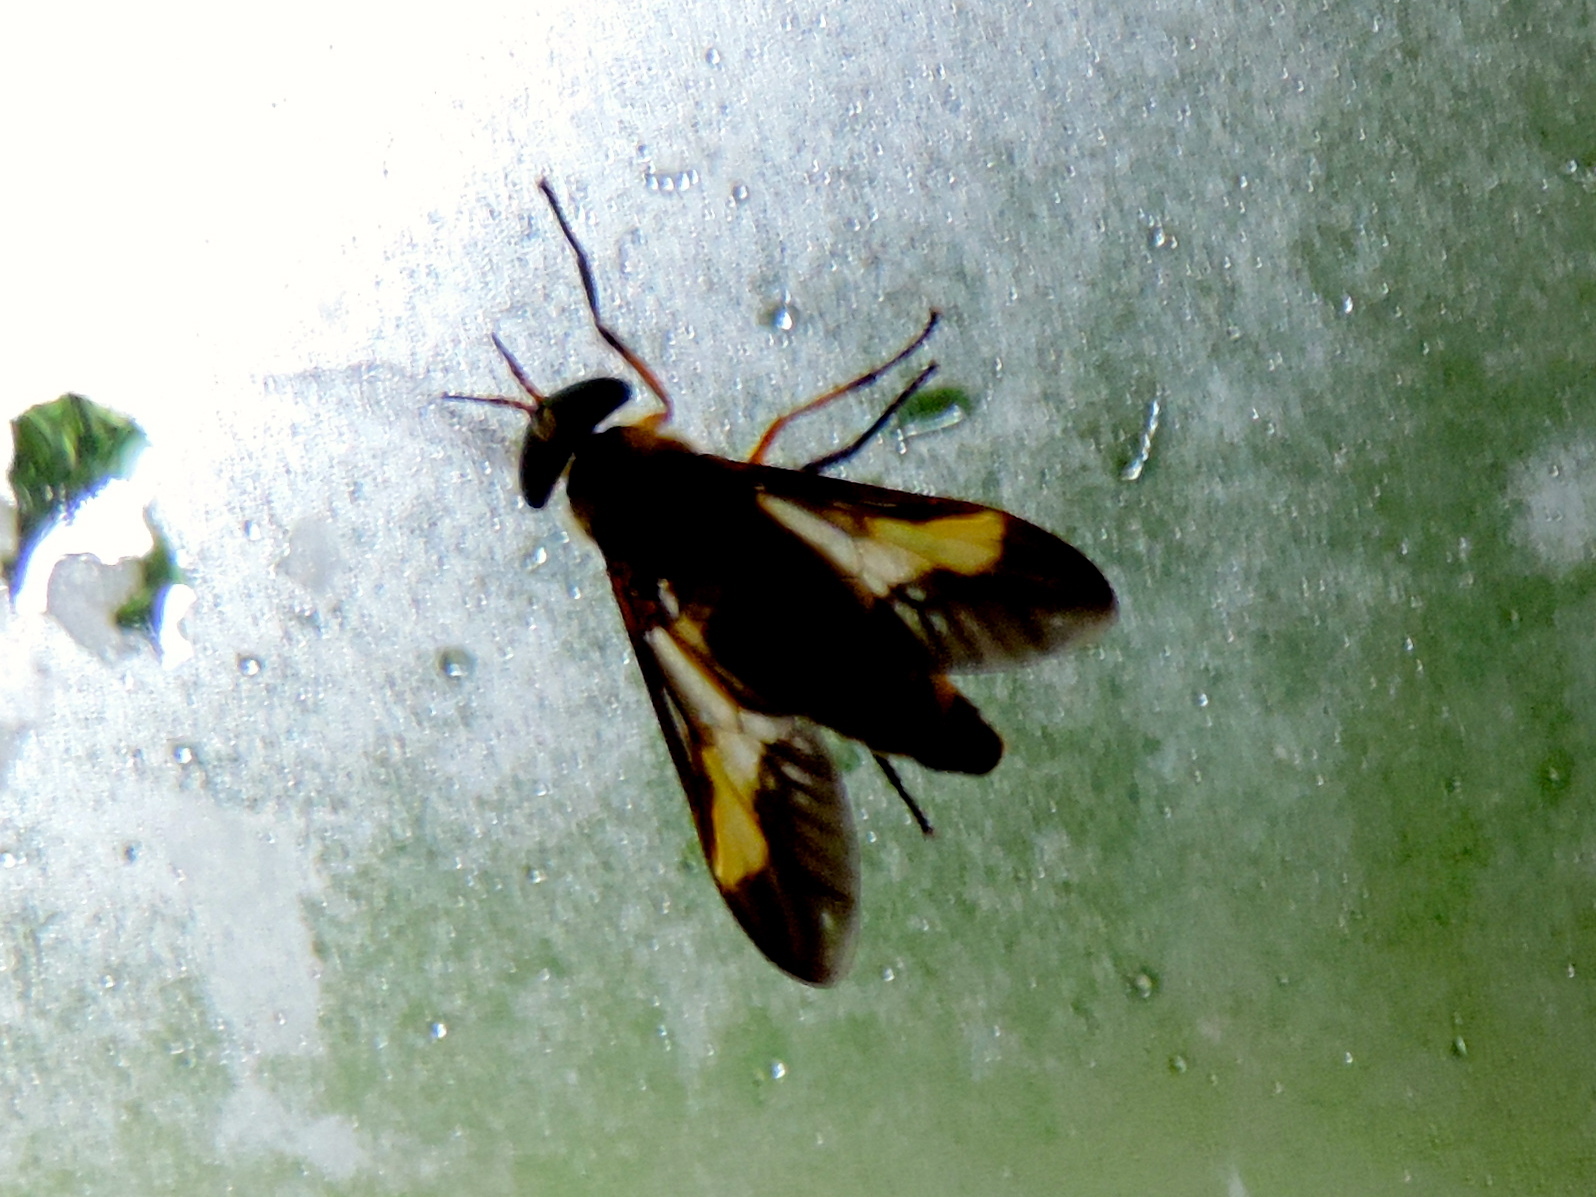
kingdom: Animalia
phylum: Arthropoda
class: Insecta
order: Diptera
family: Tabanidae
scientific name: Tabanidae
